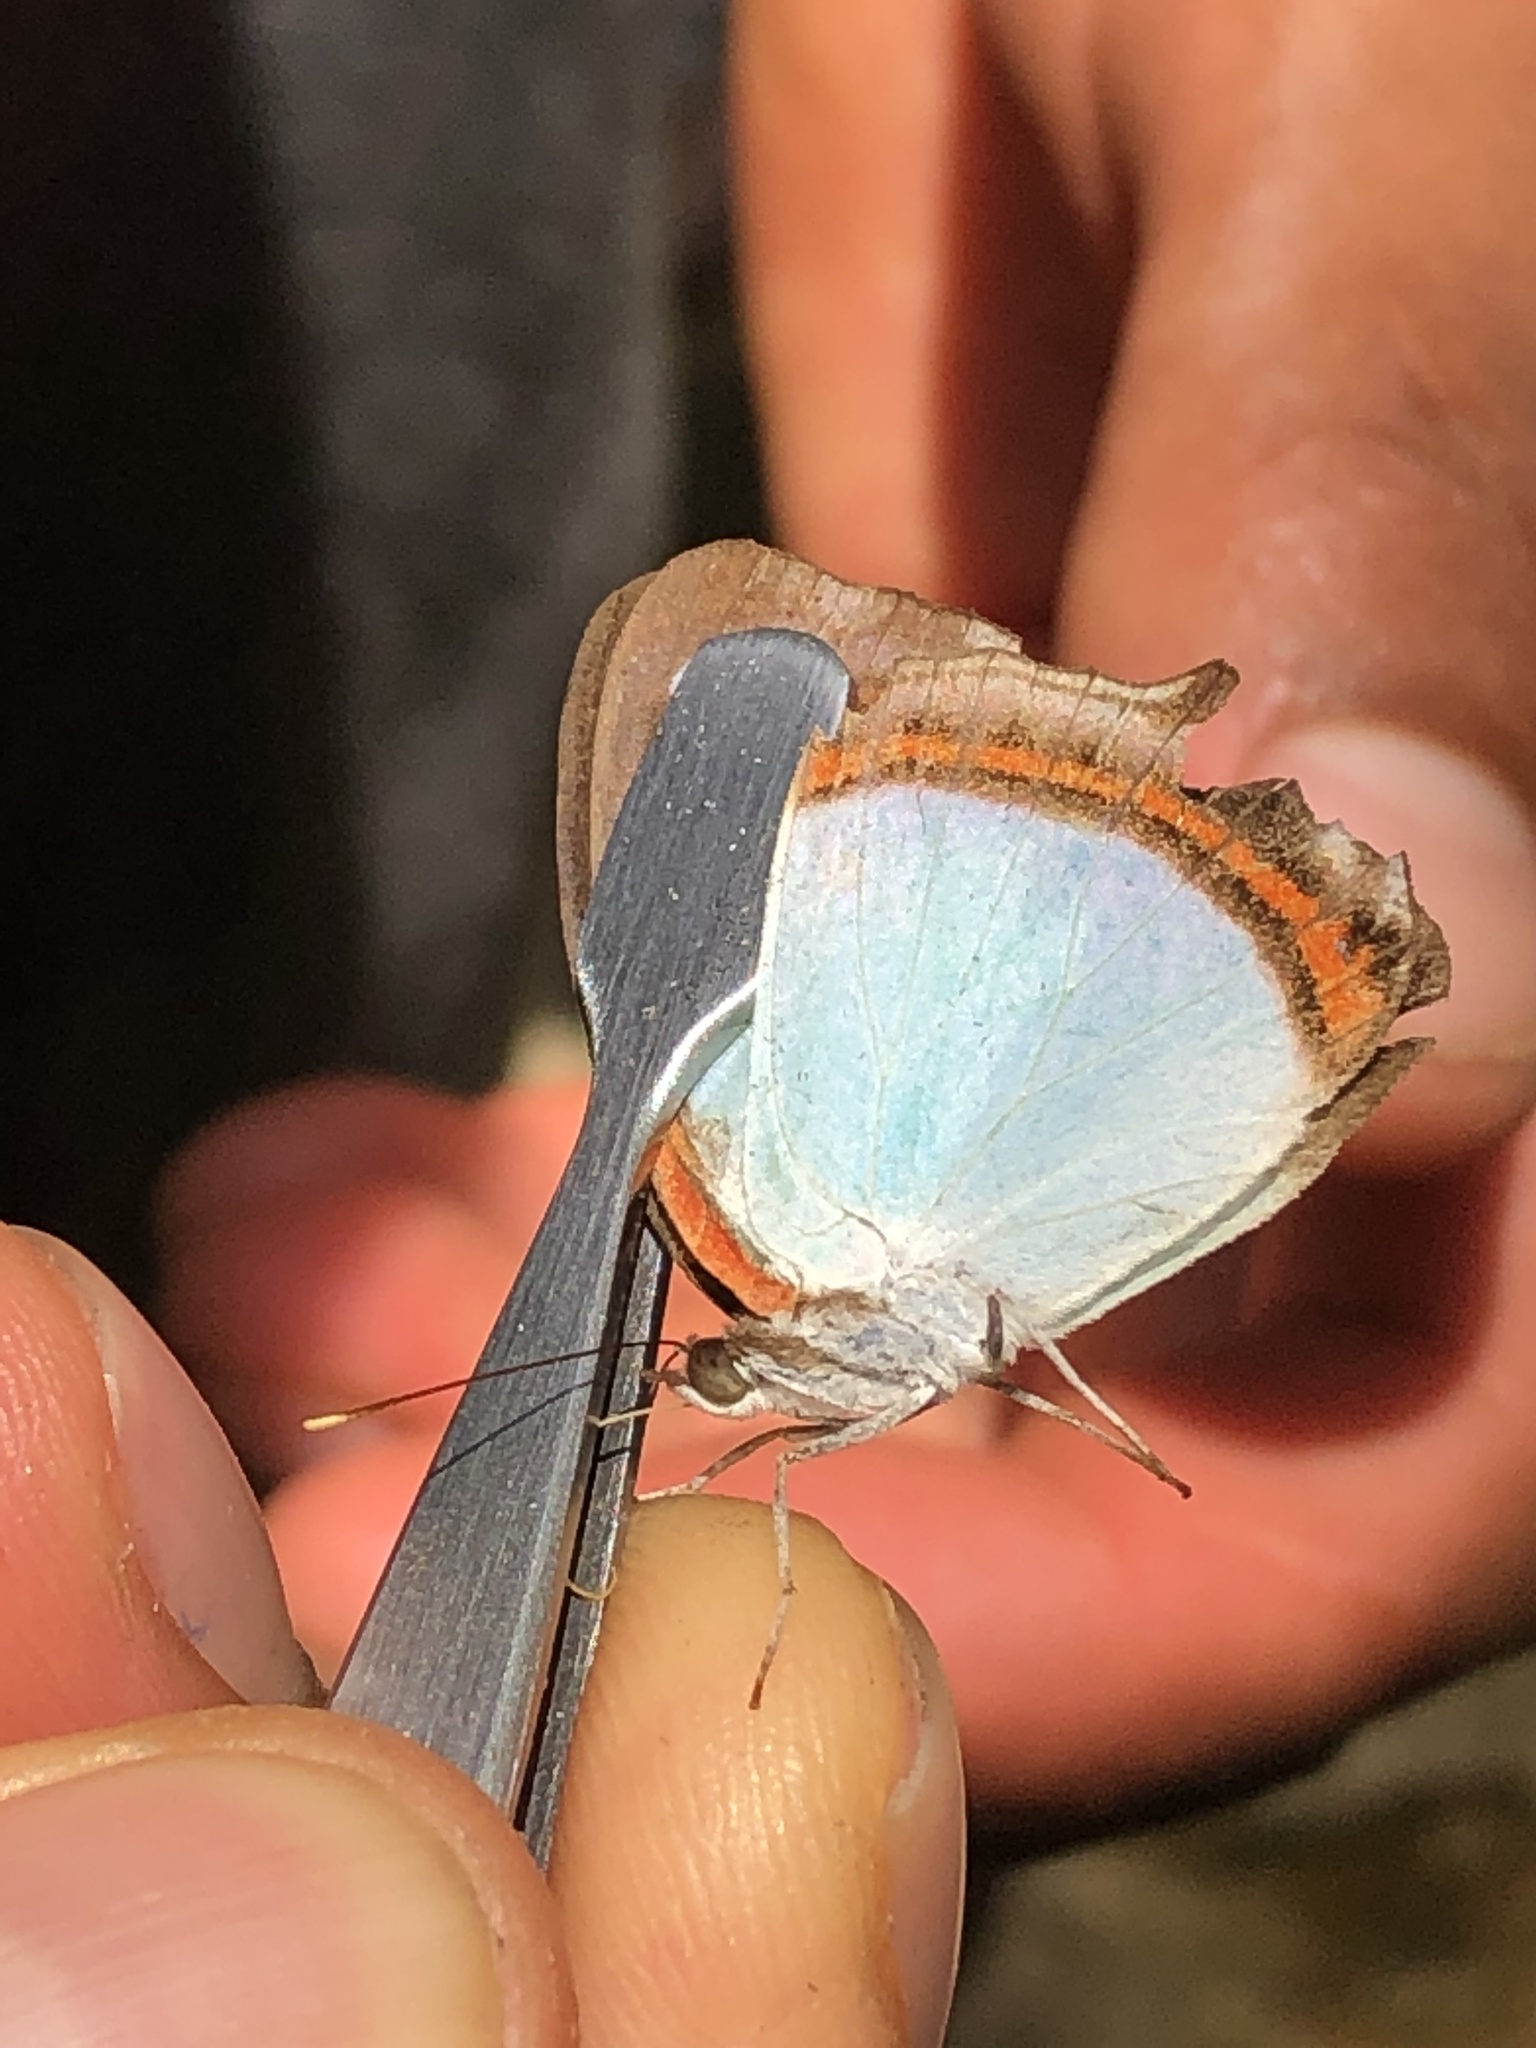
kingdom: Animalia
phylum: Arthropoda
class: Insecta
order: Lepidoptera
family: Nymphalidae
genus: Pyrrhogyra
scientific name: Pyrrhogyra crameri
